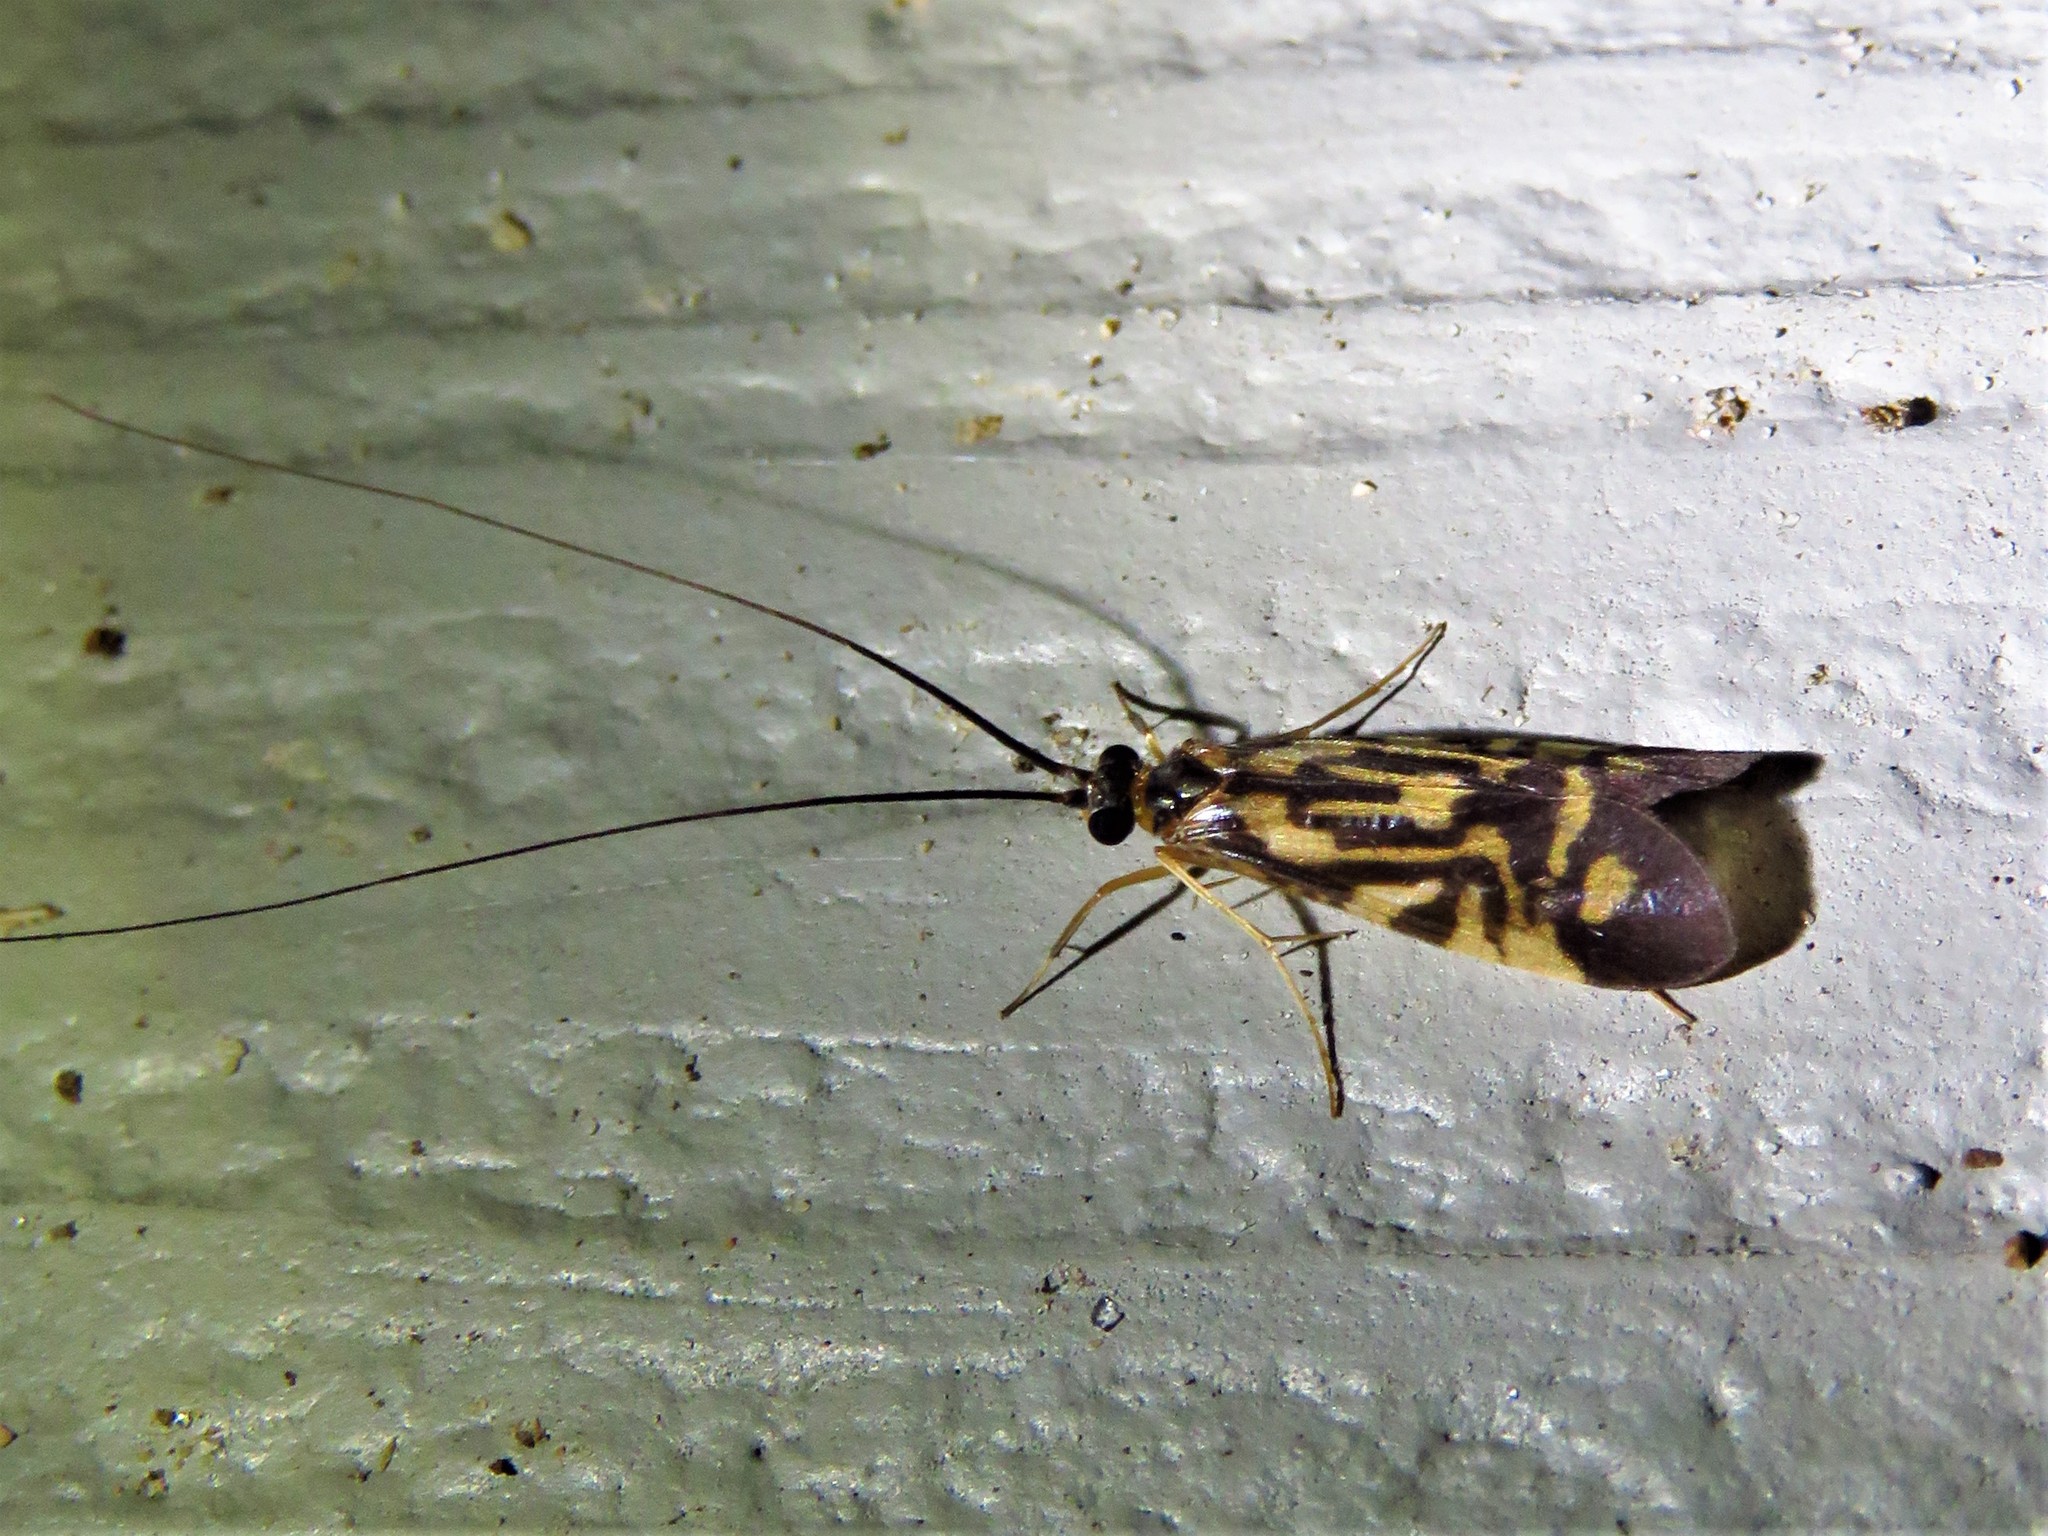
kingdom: Animalia
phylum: Arthropoda
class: Insecta
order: Trichoptera
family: Hydropsychidae
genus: Macrostemum
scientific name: Macrostemum carolina
